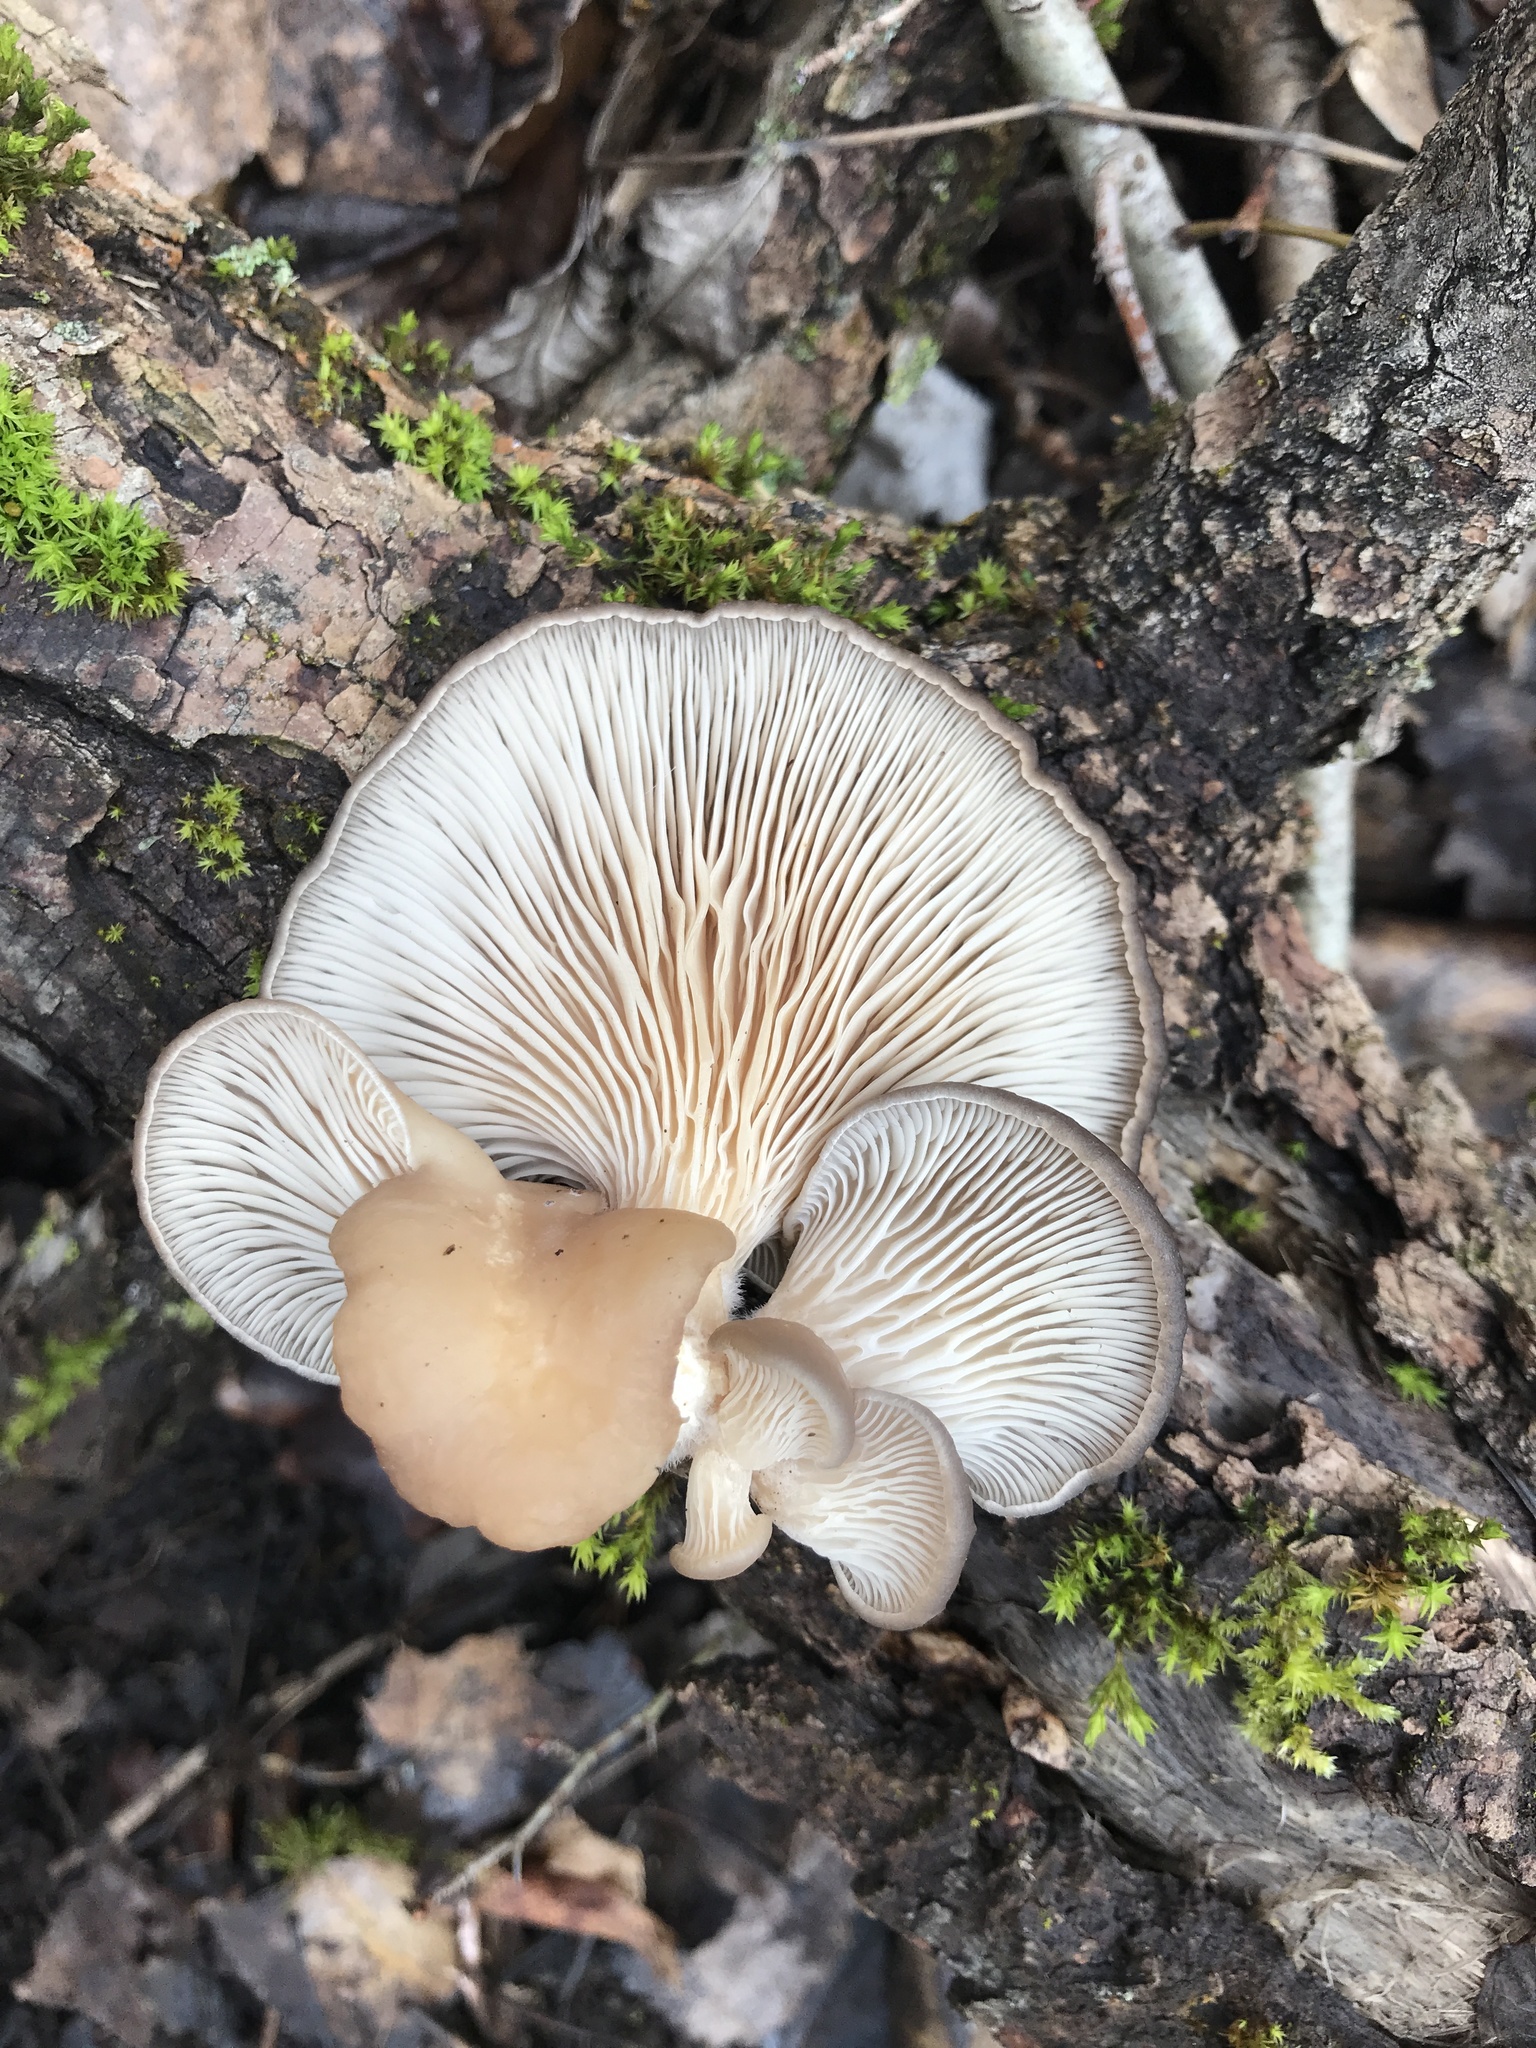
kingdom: Fungi
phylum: Basidiomycota
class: Agaricomycetes
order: Agaricales
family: Pleurotaceae
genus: Pleurotus
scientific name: Pleurotus ostreatus
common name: Oyster mushroom
